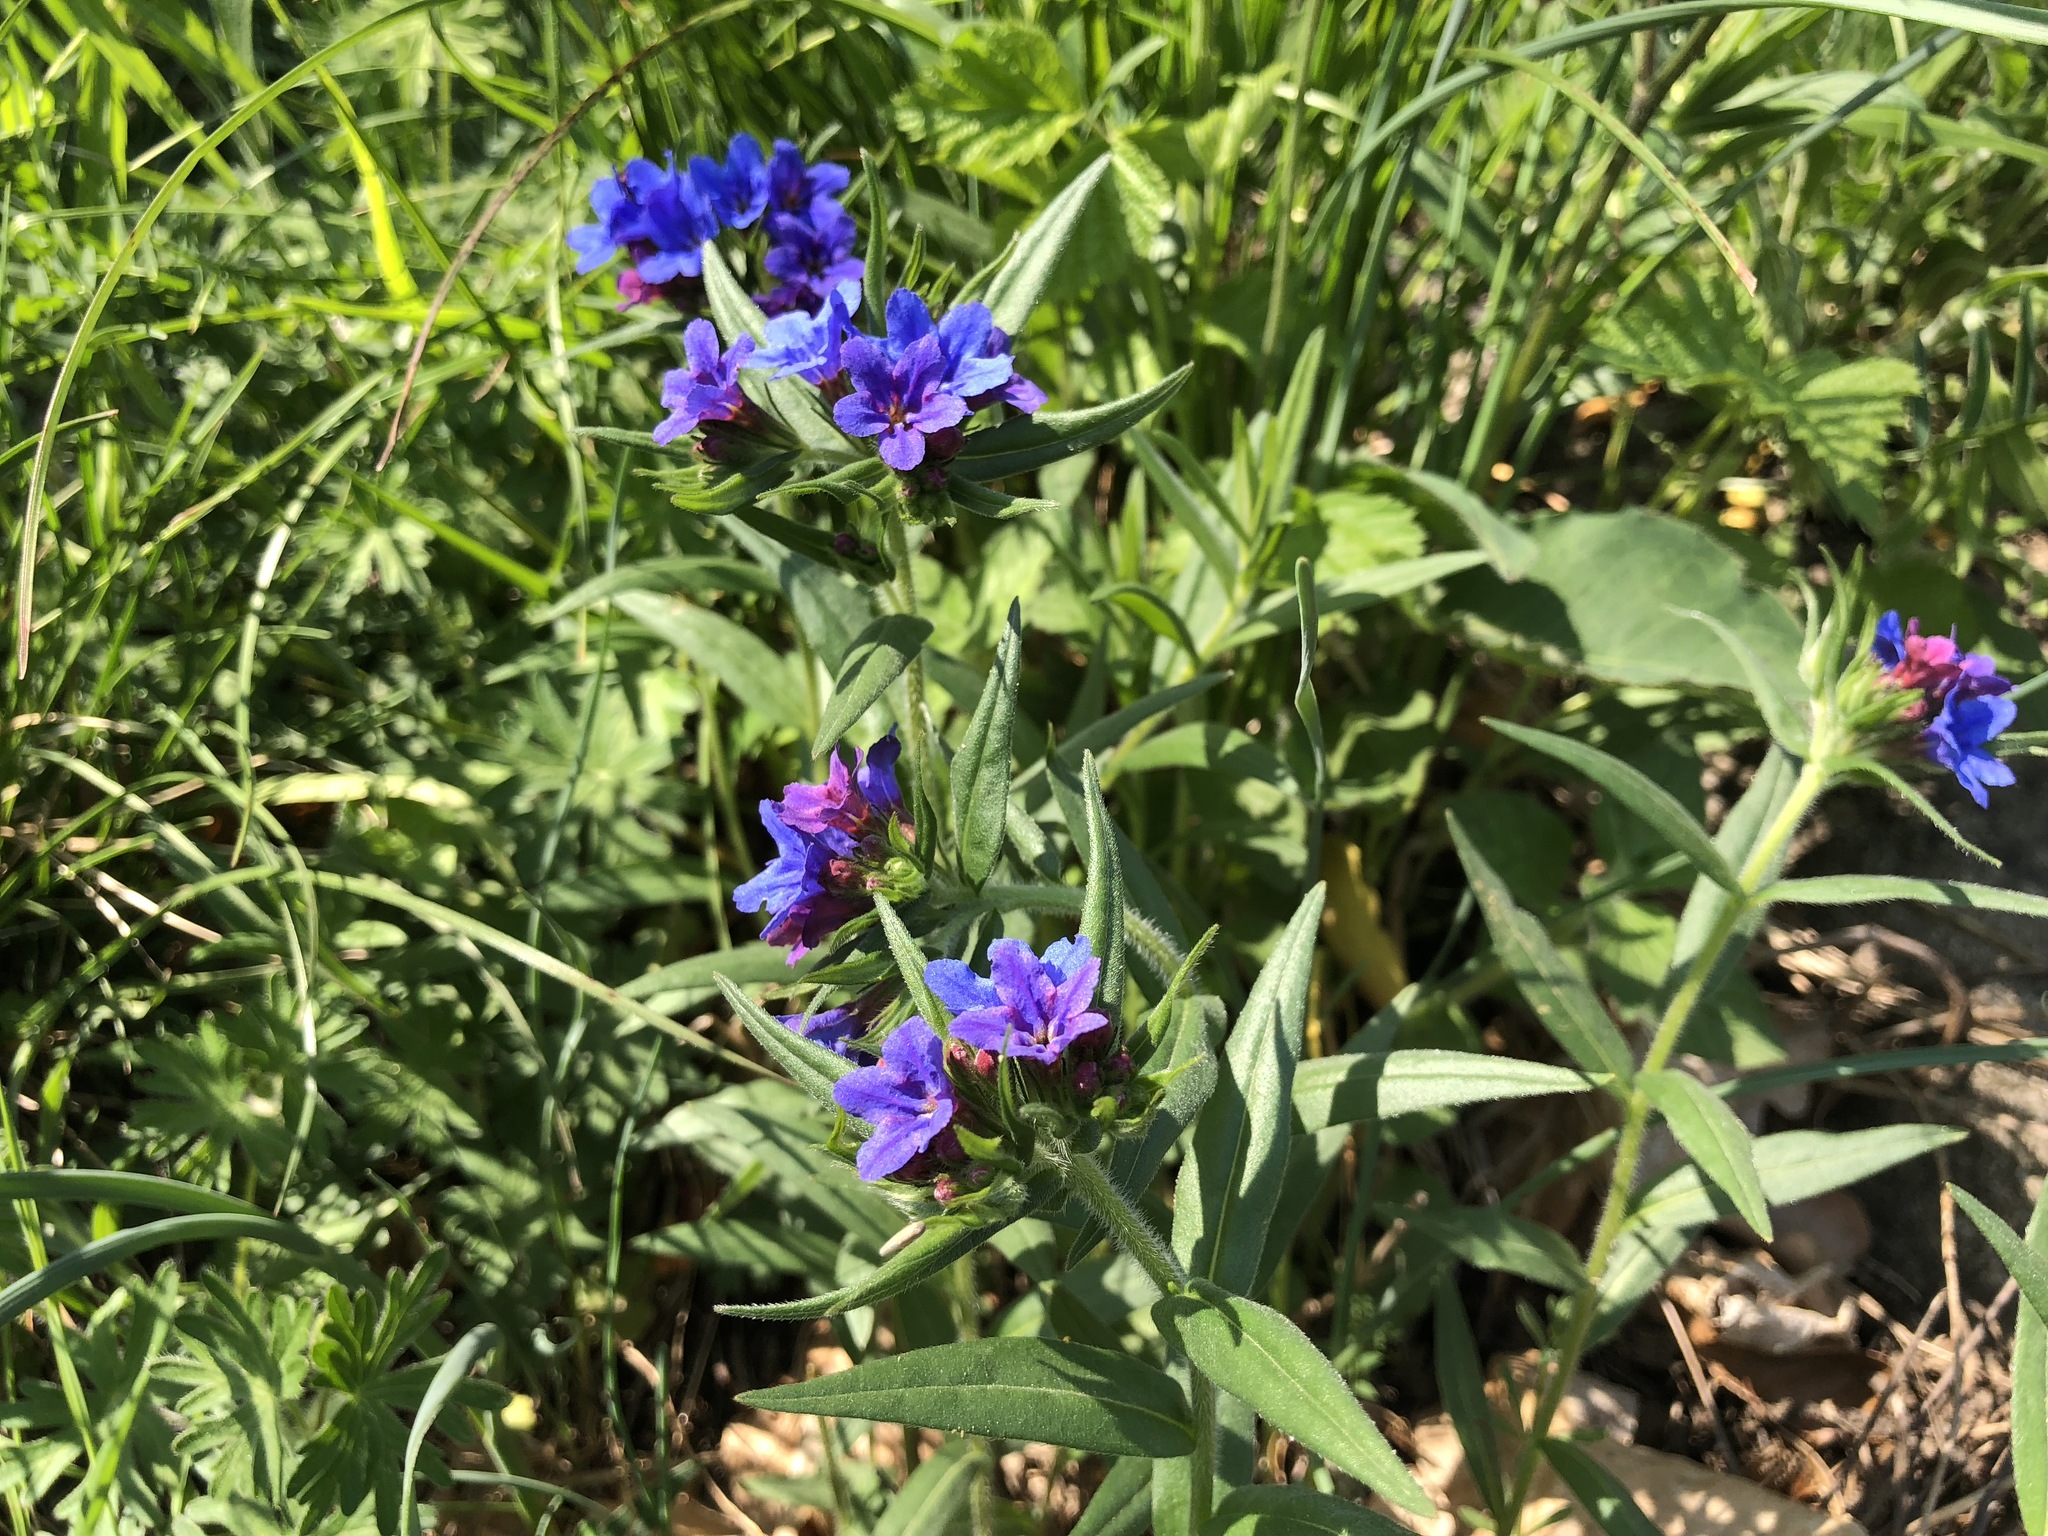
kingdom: Plantae
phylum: Tracheophyta
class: Magnoliopsida
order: Boraginales
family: Boraginaceae
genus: Aegonychon
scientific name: Aegonychon purpurocaeruleum
